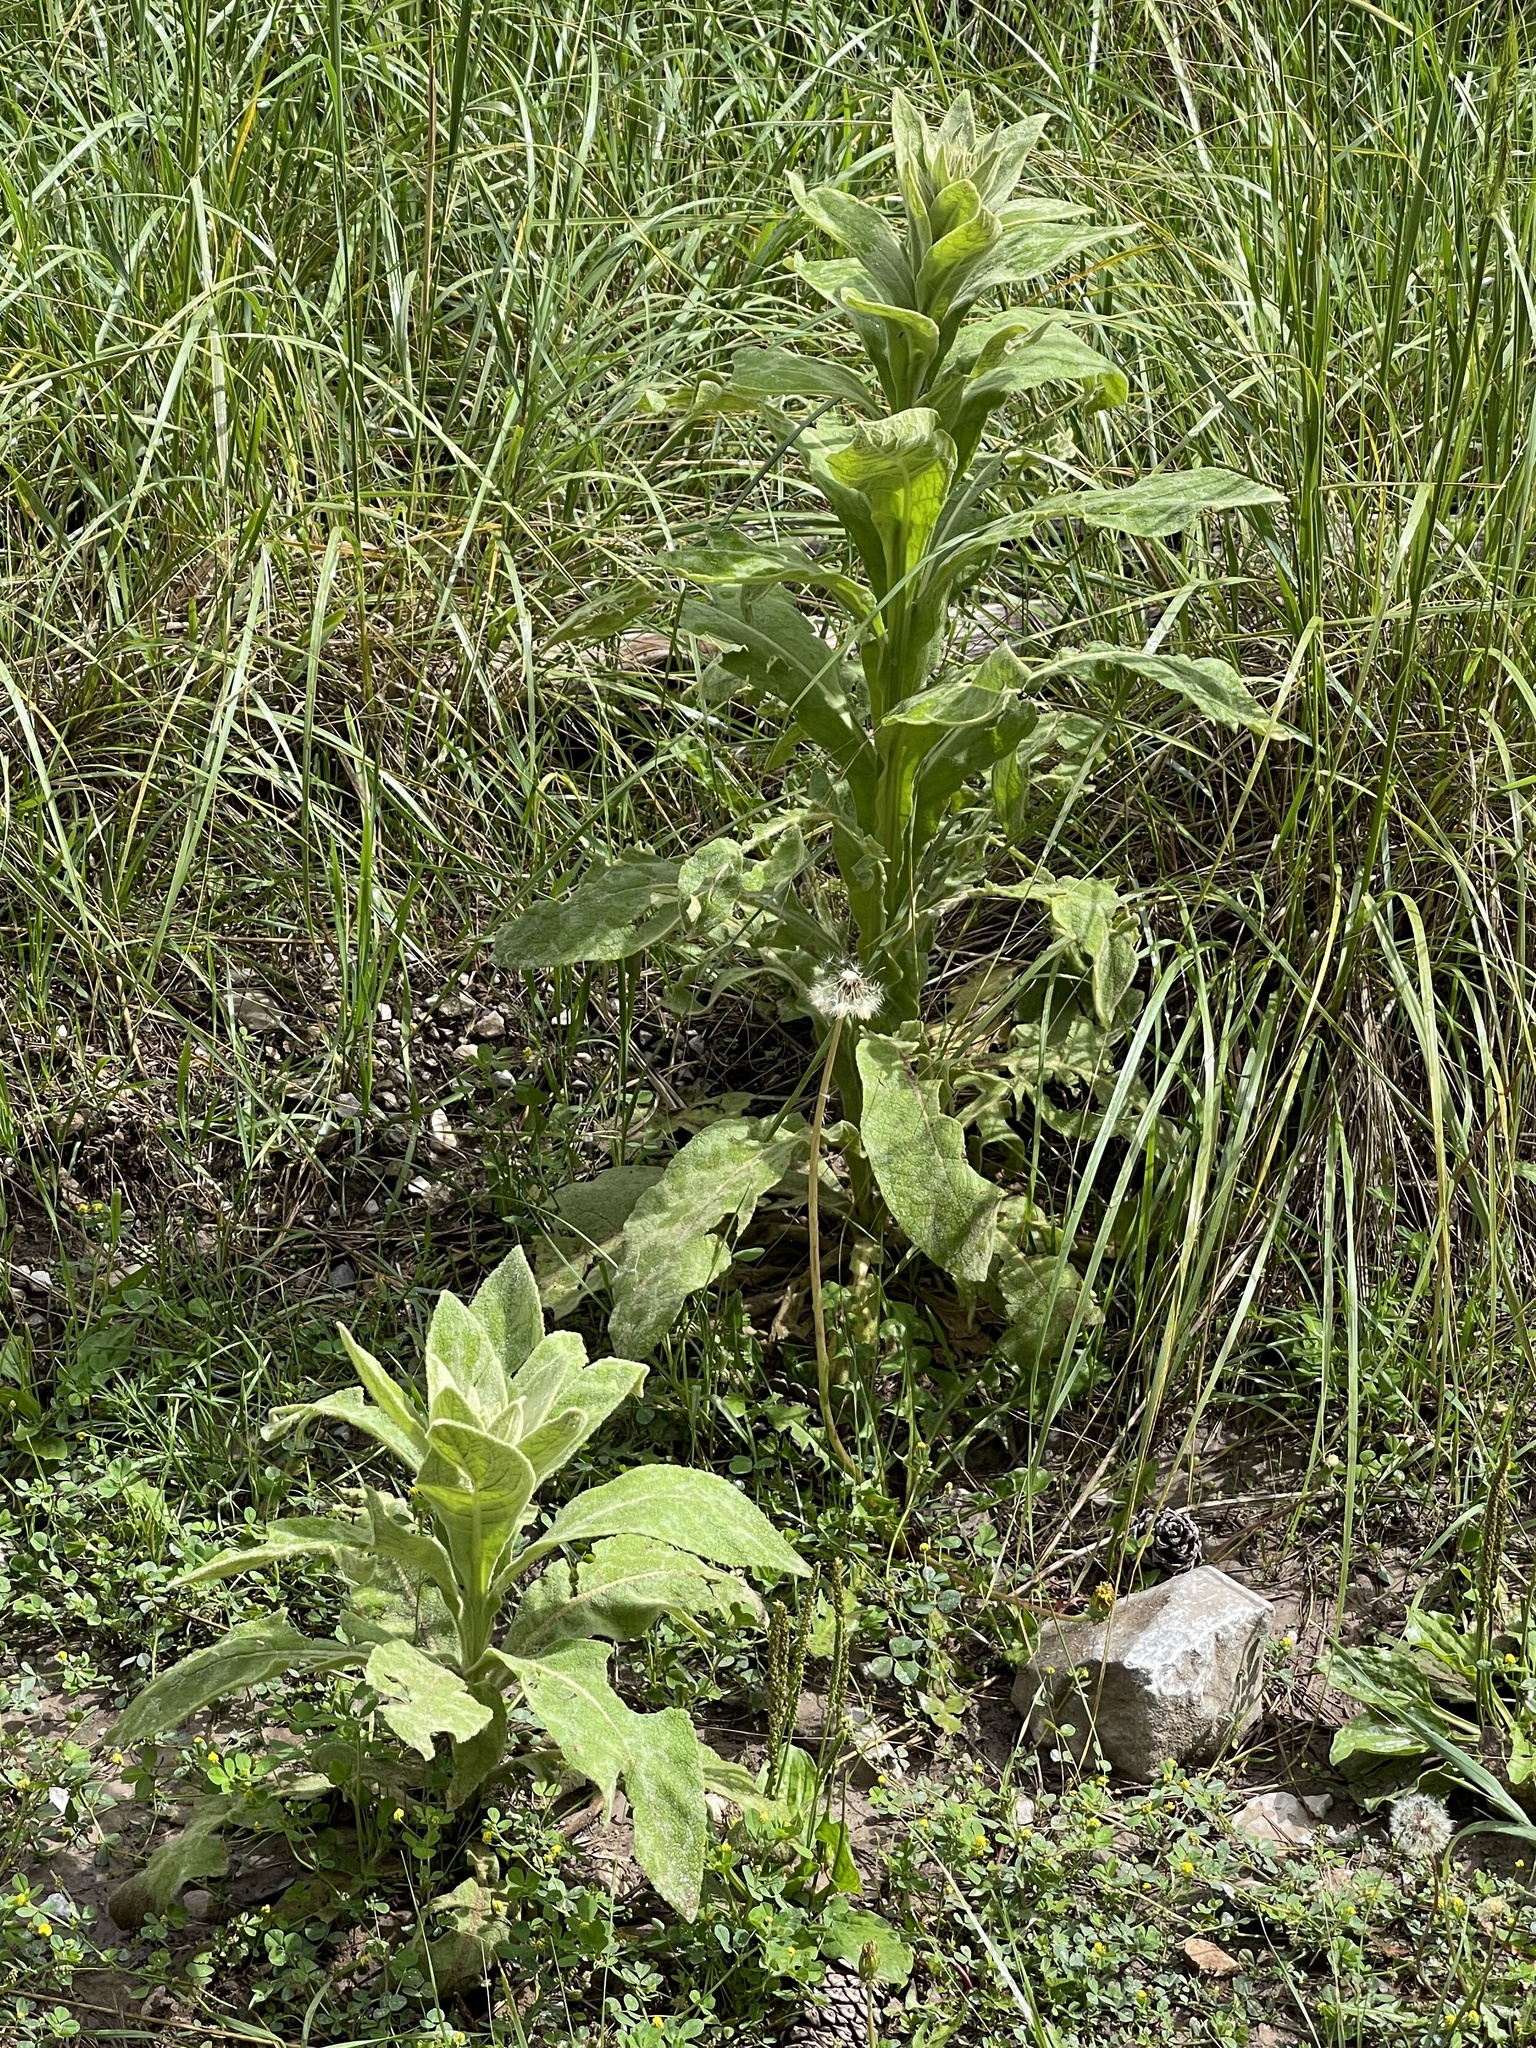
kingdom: Plantae
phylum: Tracheophyta
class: Magnoliopsida
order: Lamiales
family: Scrophulariaceae
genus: Verbascum
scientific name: Verbascum thapsus
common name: Common mullein
